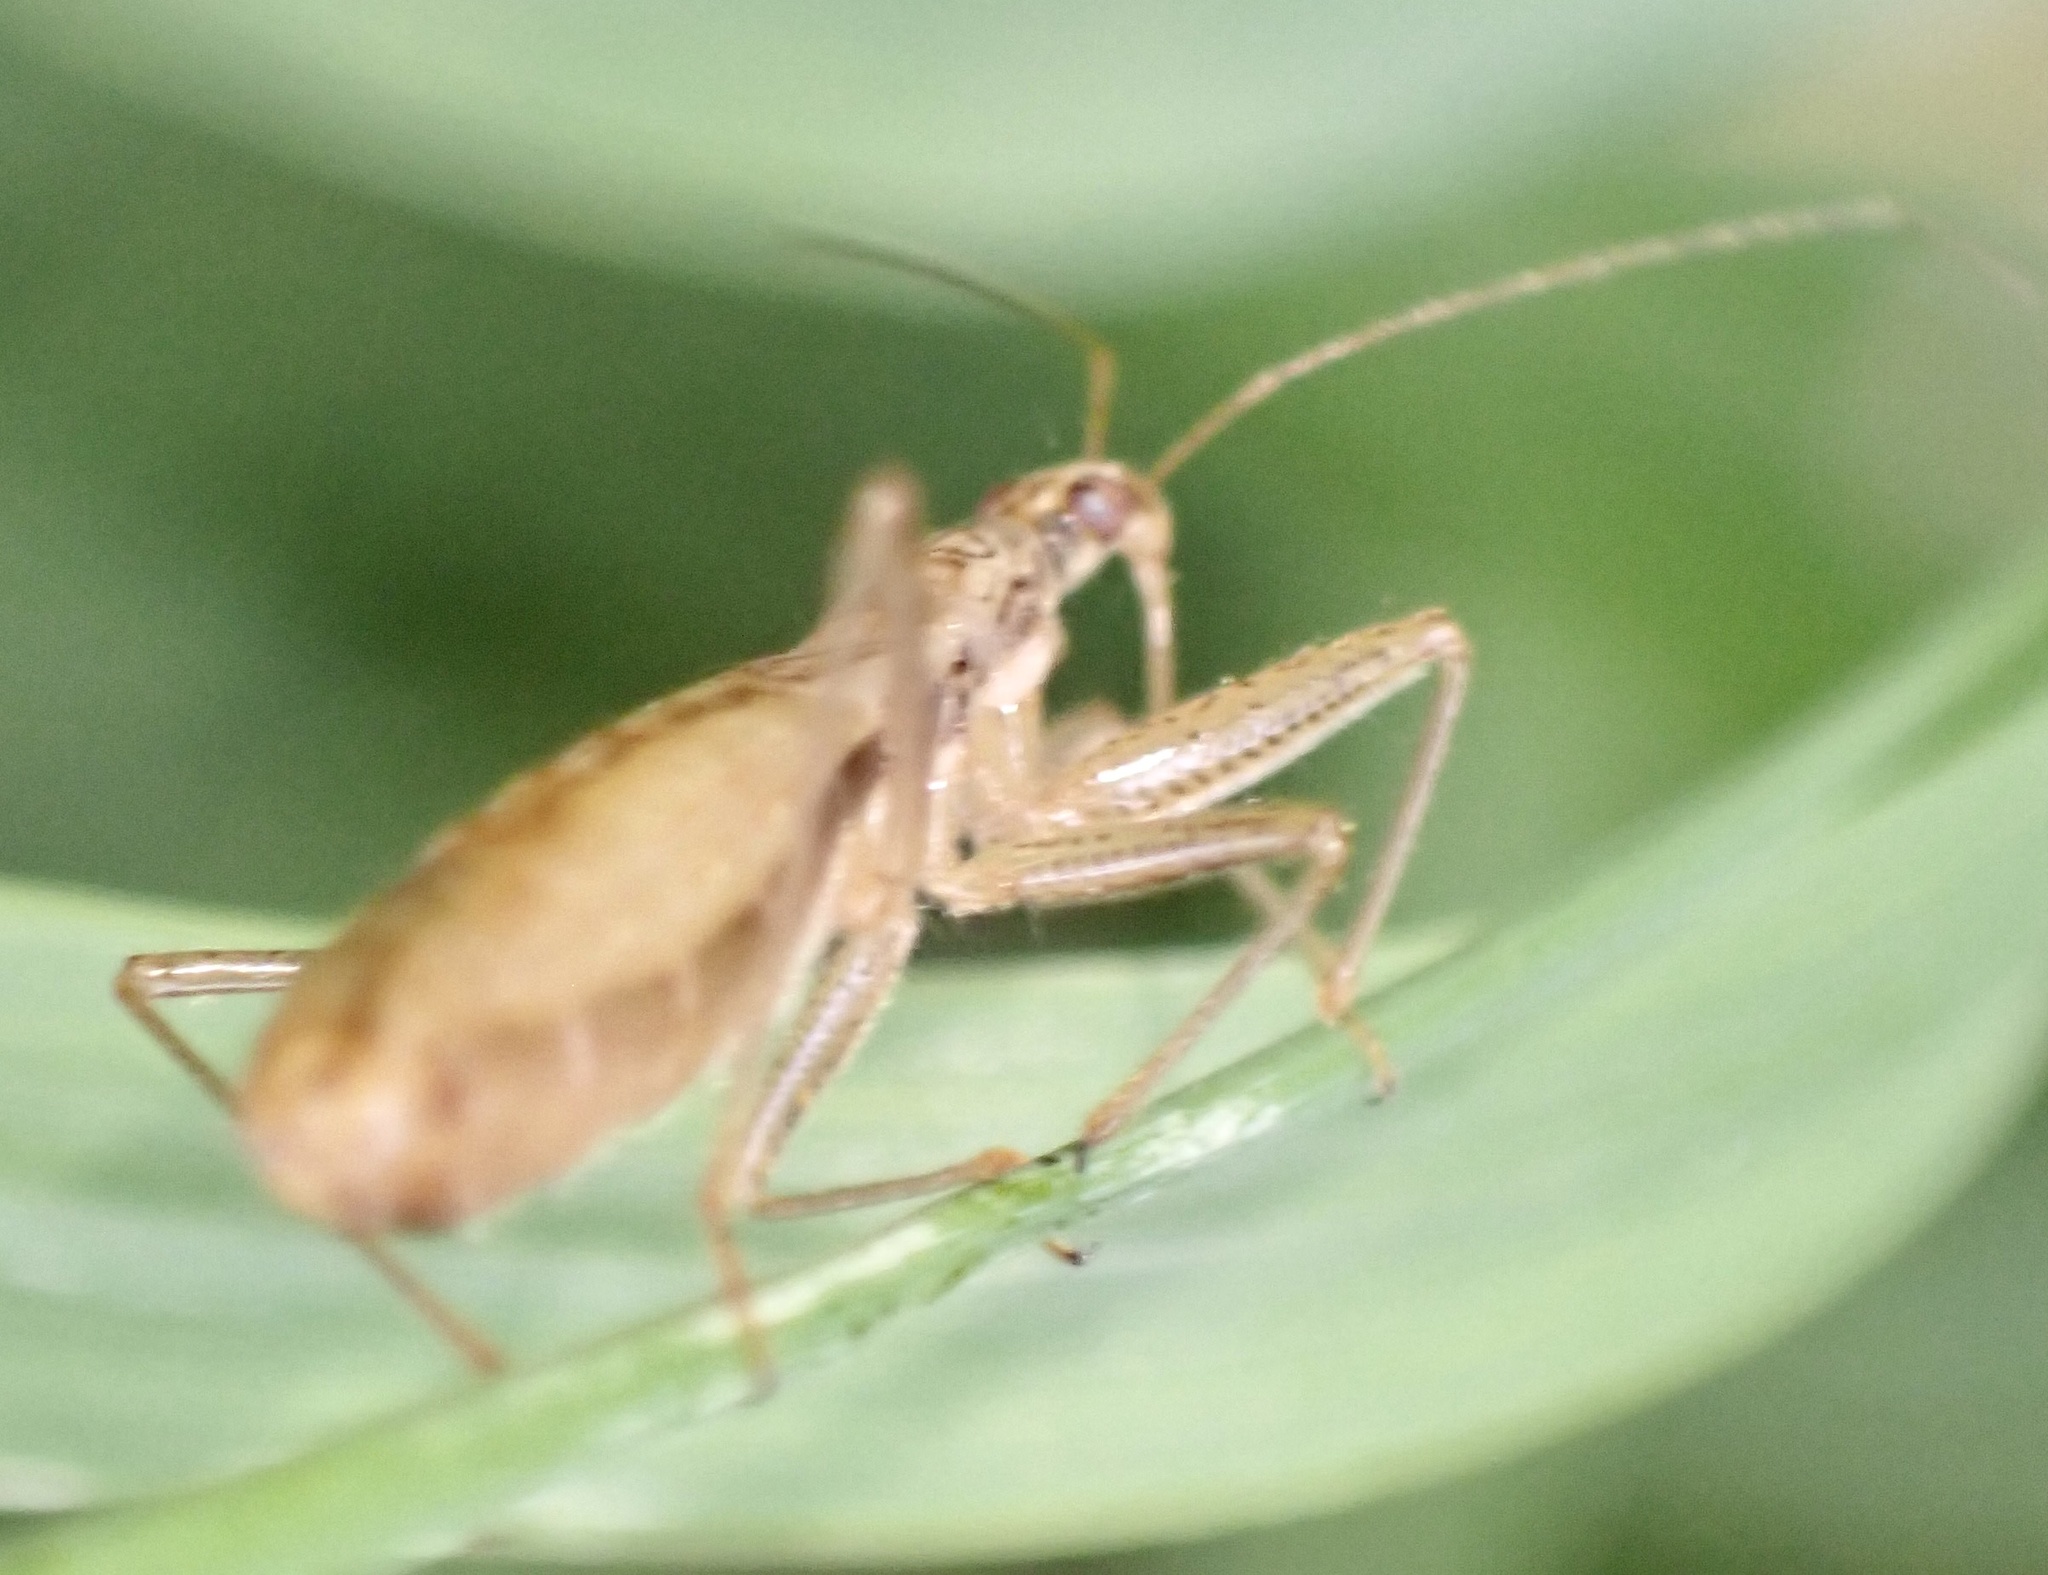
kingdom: Animalia
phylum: Arthropoda
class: Insecta
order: Hemiptera
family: Nabidae
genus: Nabis
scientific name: Nabis limbatus
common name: Marsh damselbug
